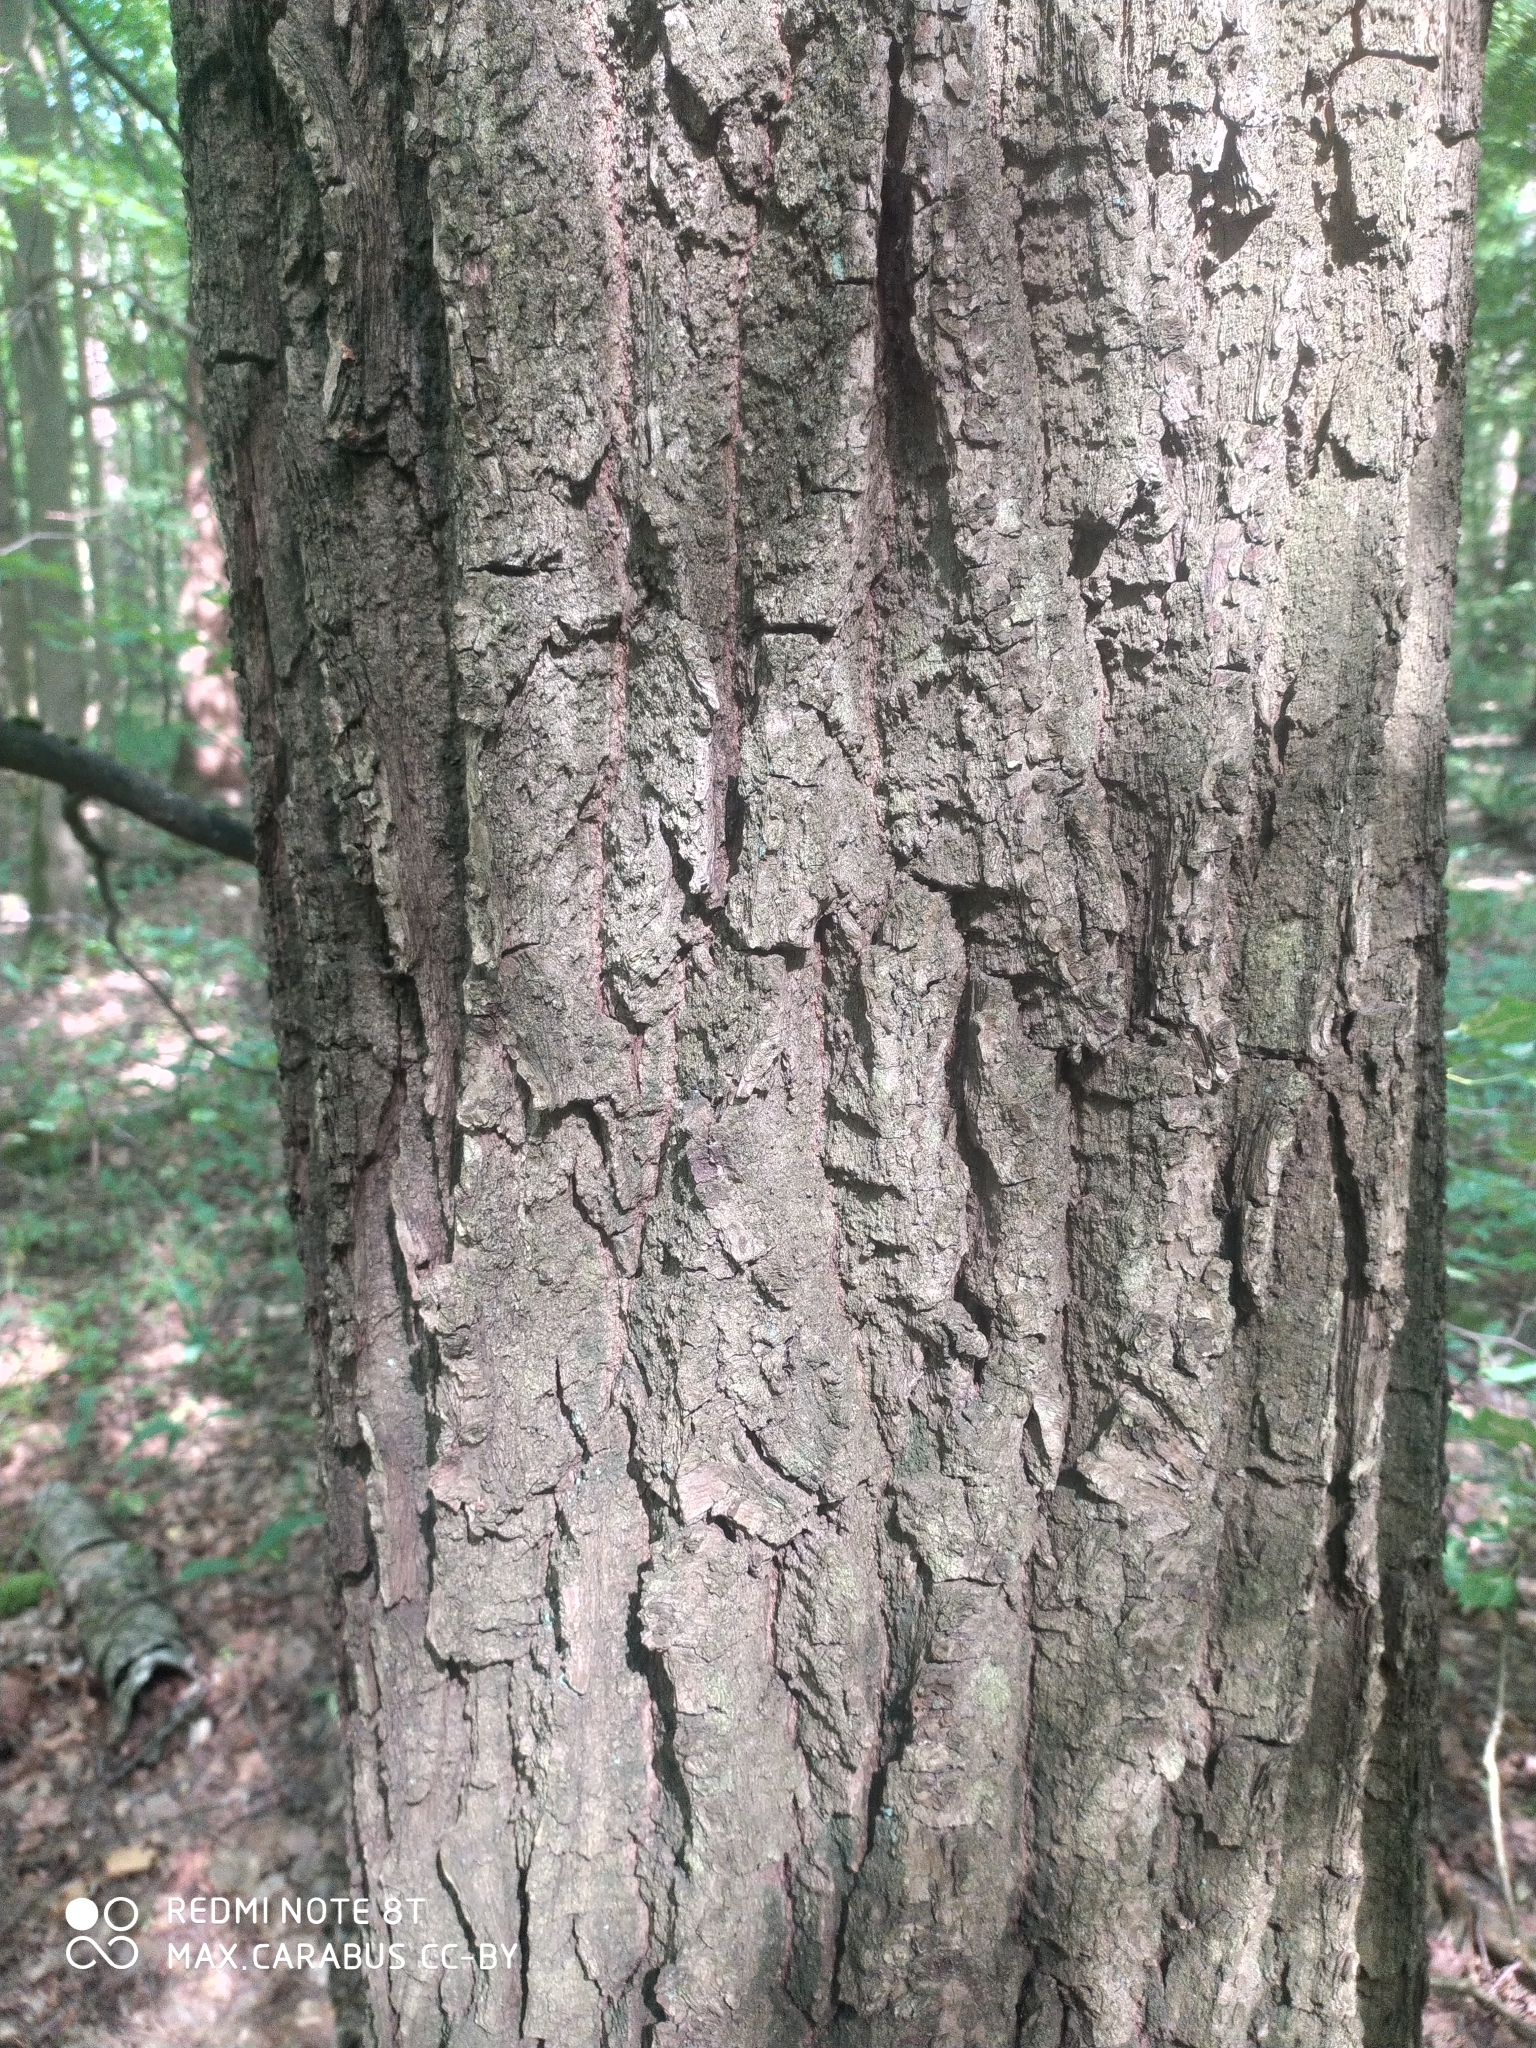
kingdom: Plantae
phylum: Tracheophyta
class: Magnoliopsida
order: Fagales
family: Fagaceae
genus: Quercus
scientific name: Quercus robur
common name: Pedunculate oak
